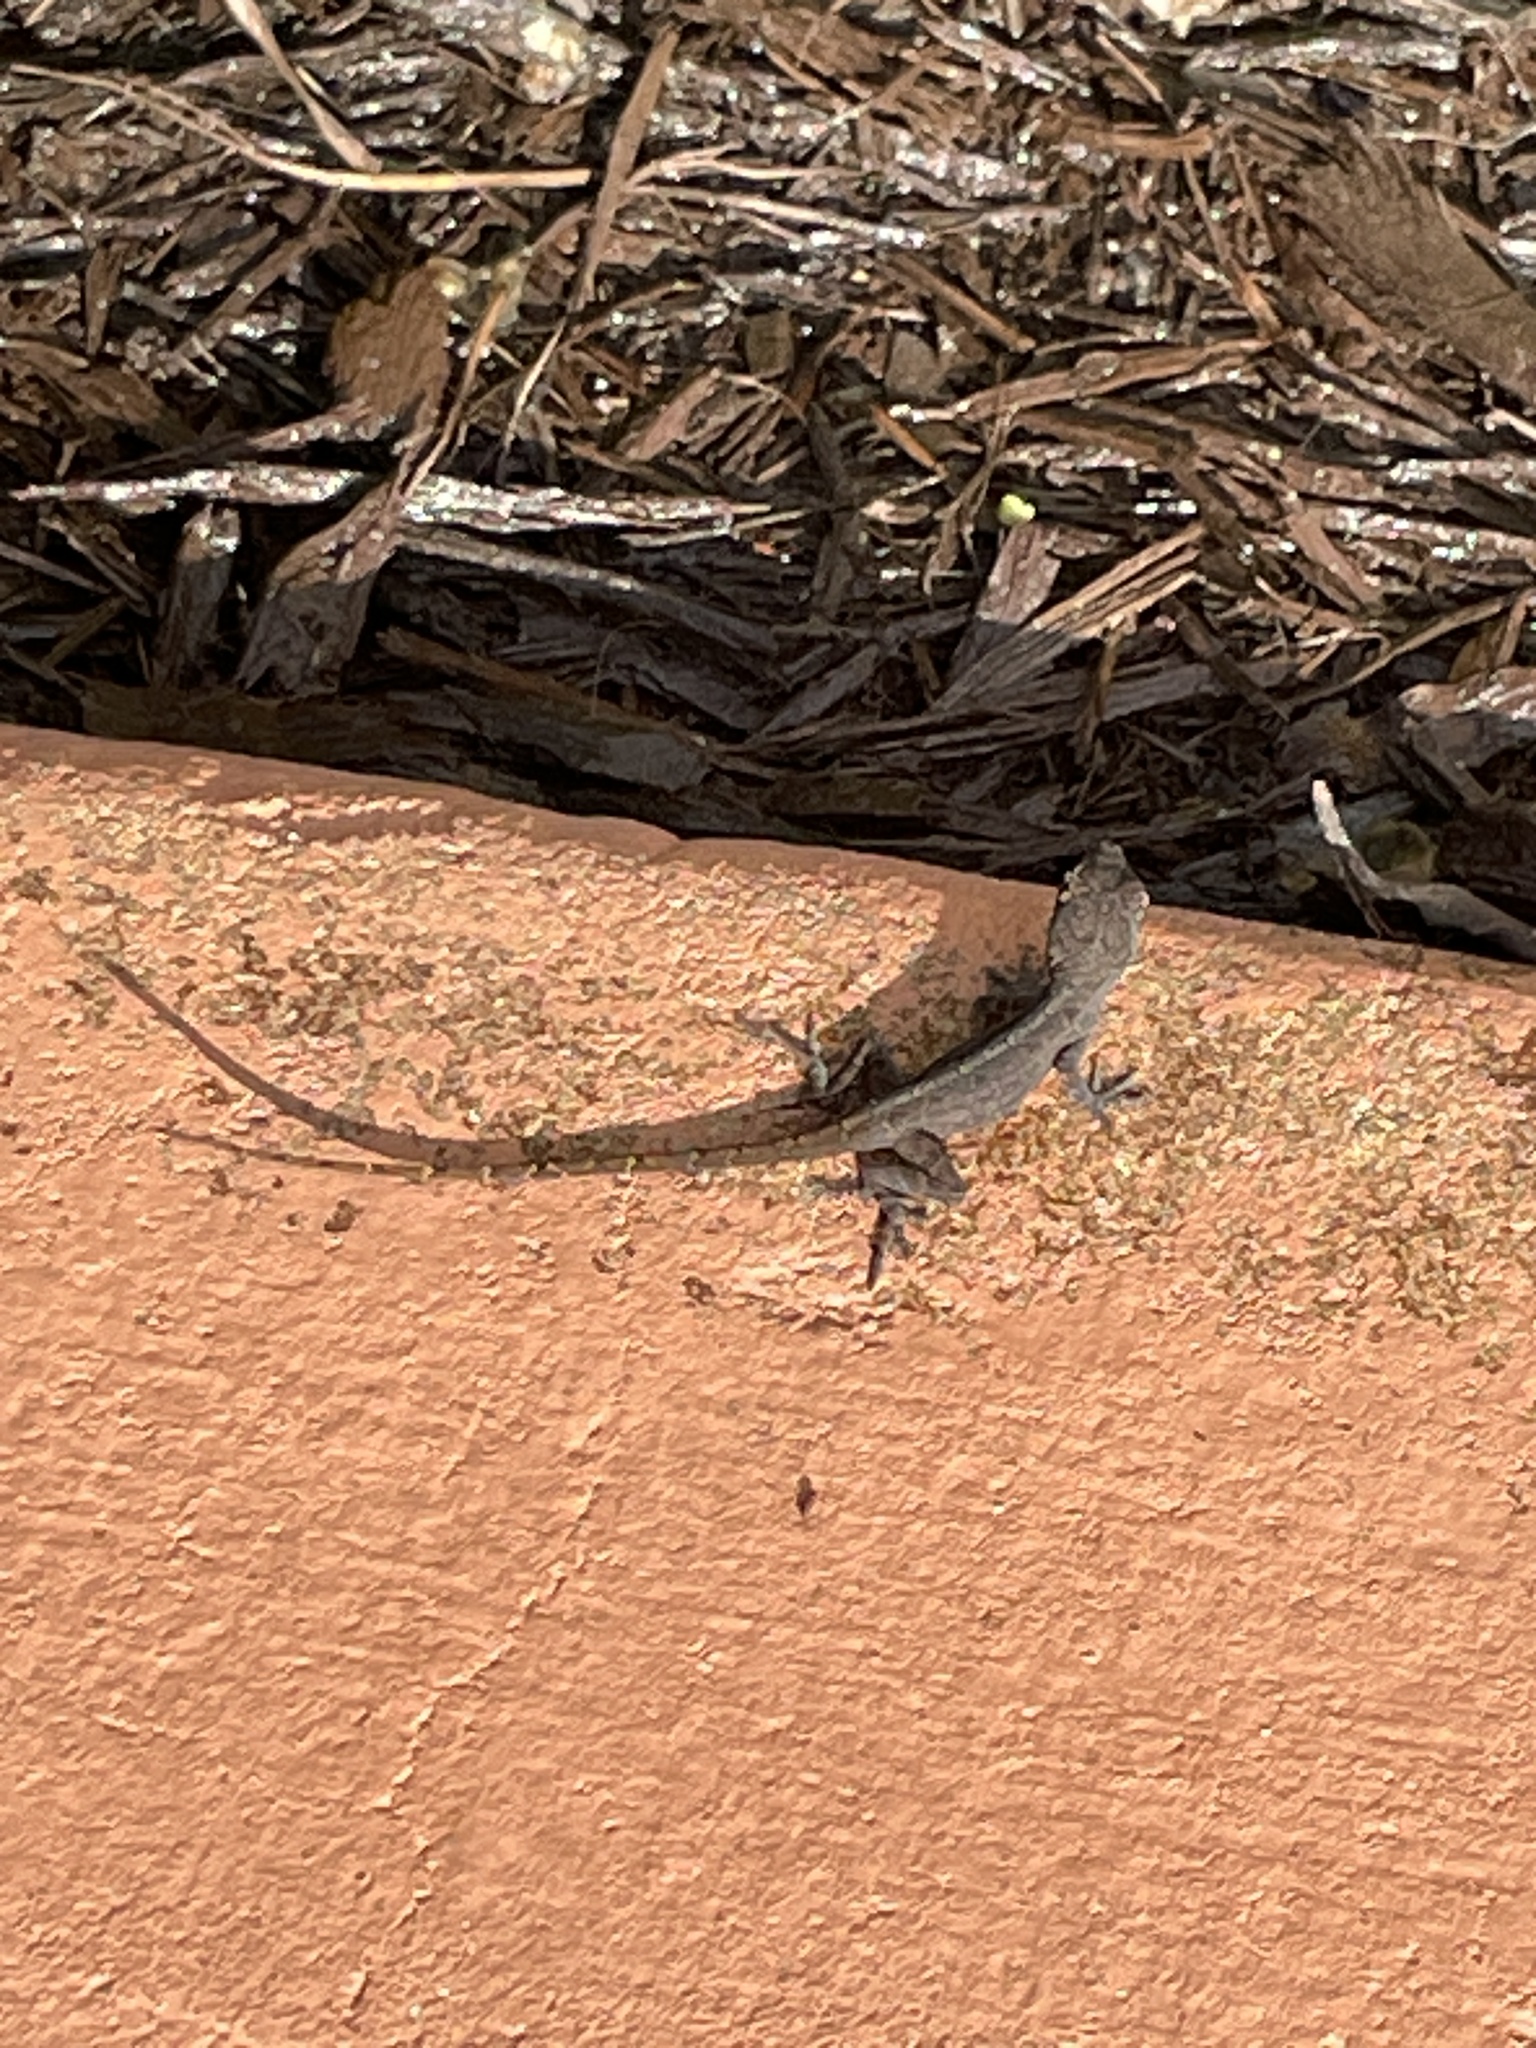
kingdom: Animalia
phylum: Chordata
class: Squamata
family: Dactyloidae
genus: Anolis
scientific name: Anolis sagrei
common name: Brown anole
